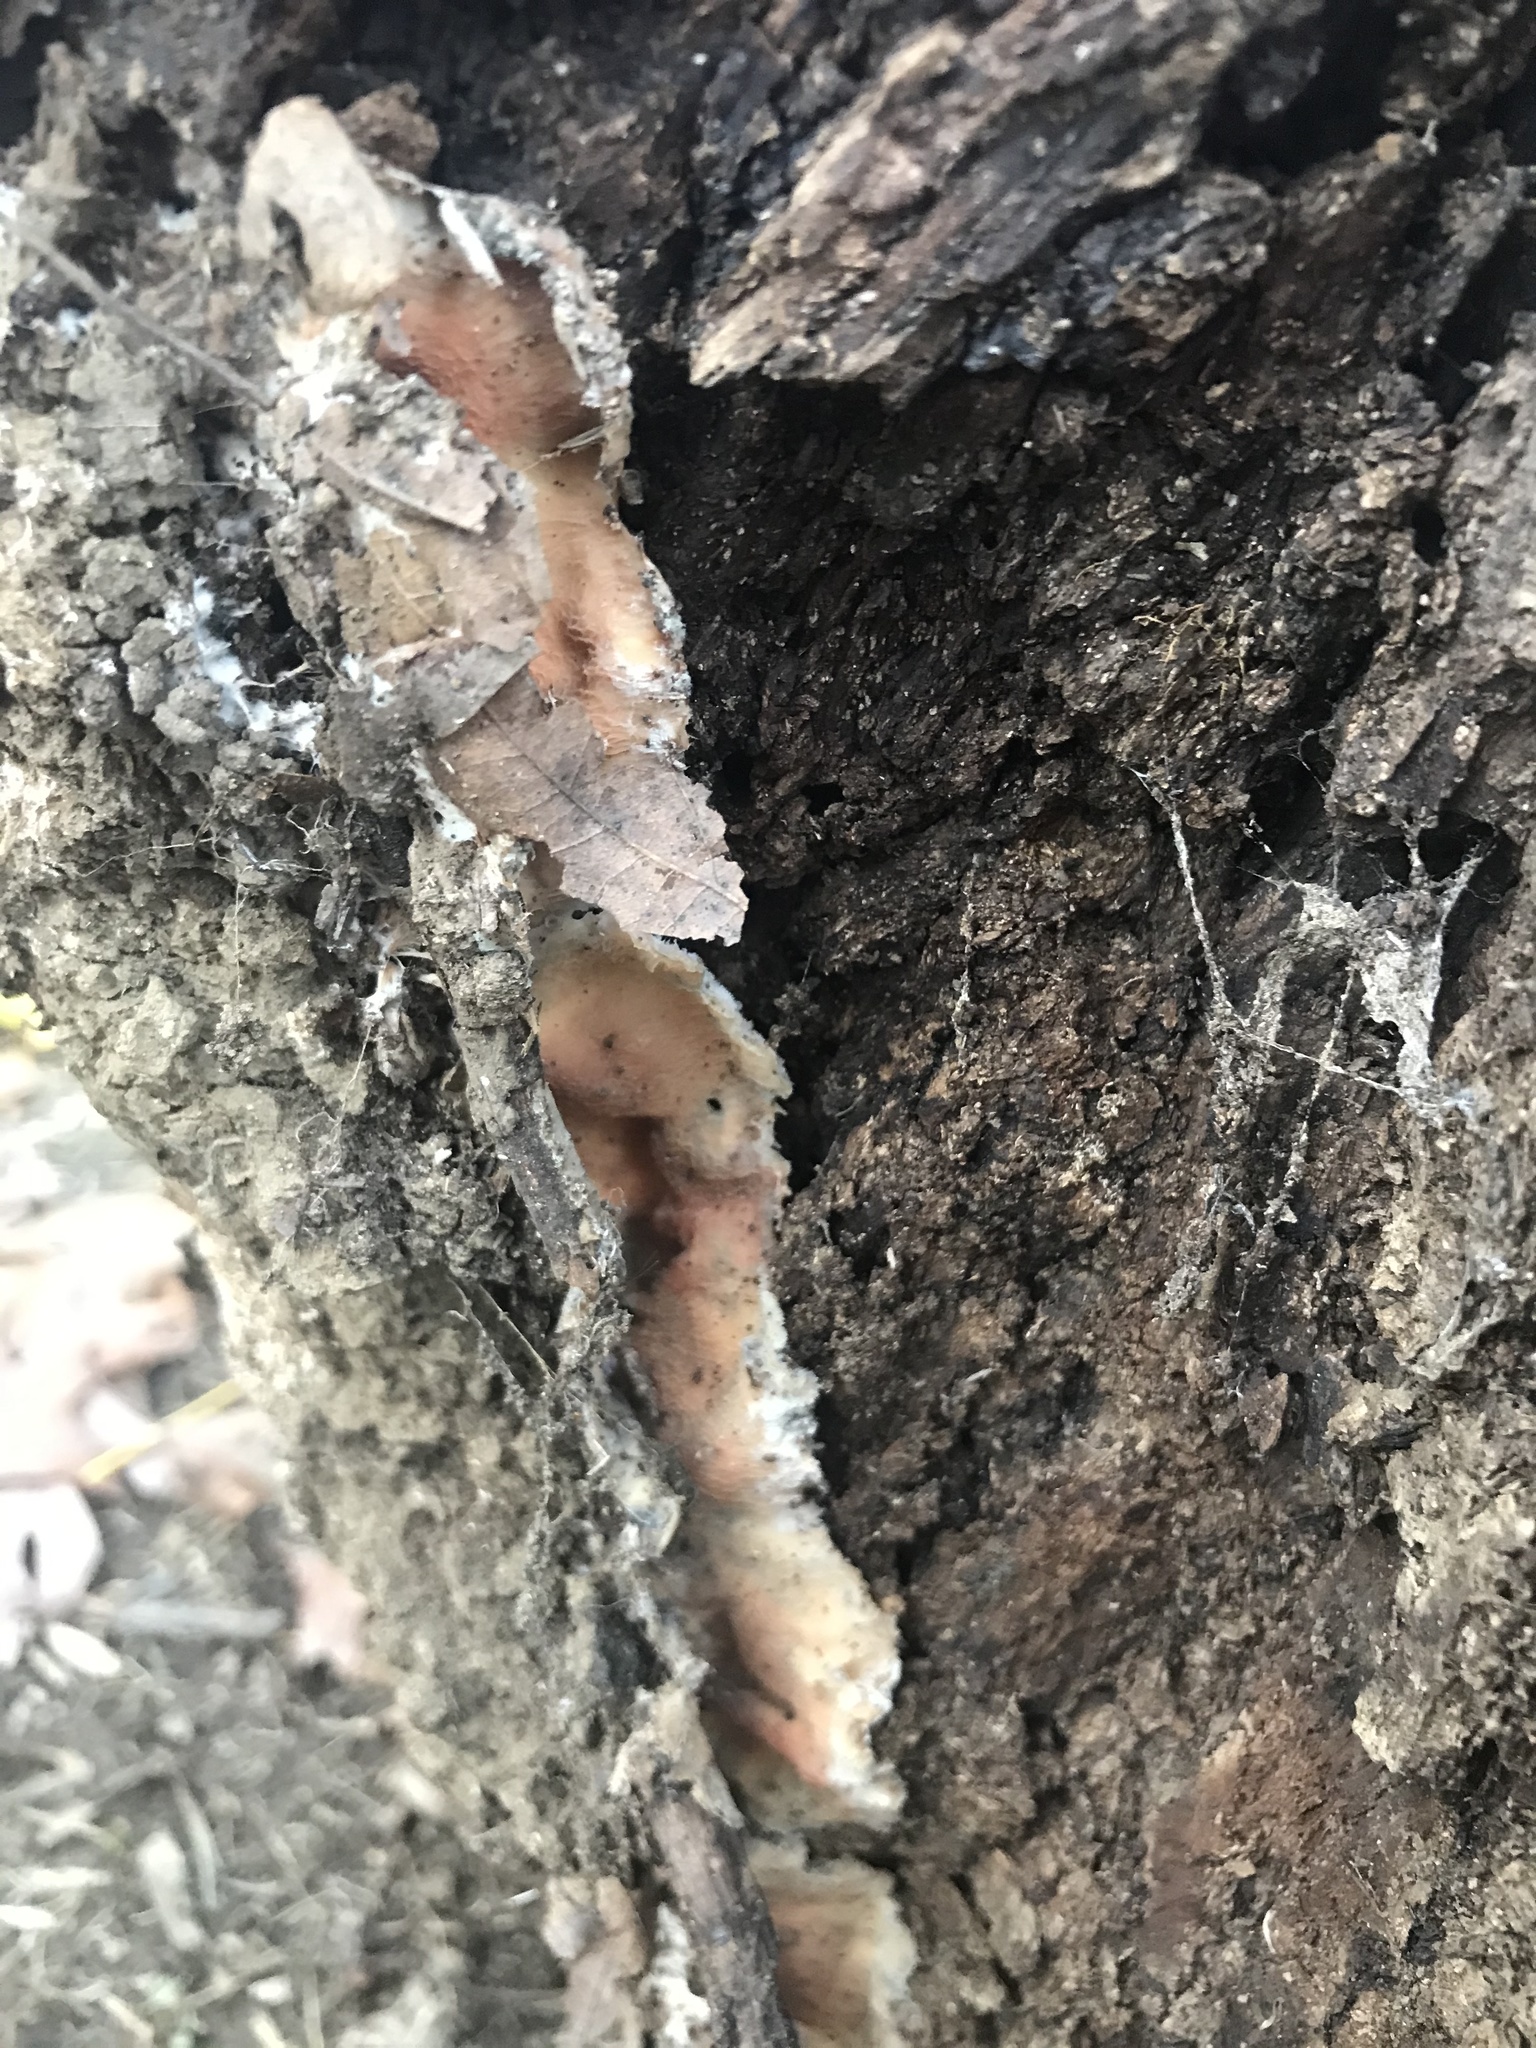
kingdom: Fungi
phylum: Basidiomycota
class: Agaricomycetes
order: Polyporales
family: Meruliaceae
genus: Phlebia
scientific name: Phlebia tremellosa
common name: Jelly rot
